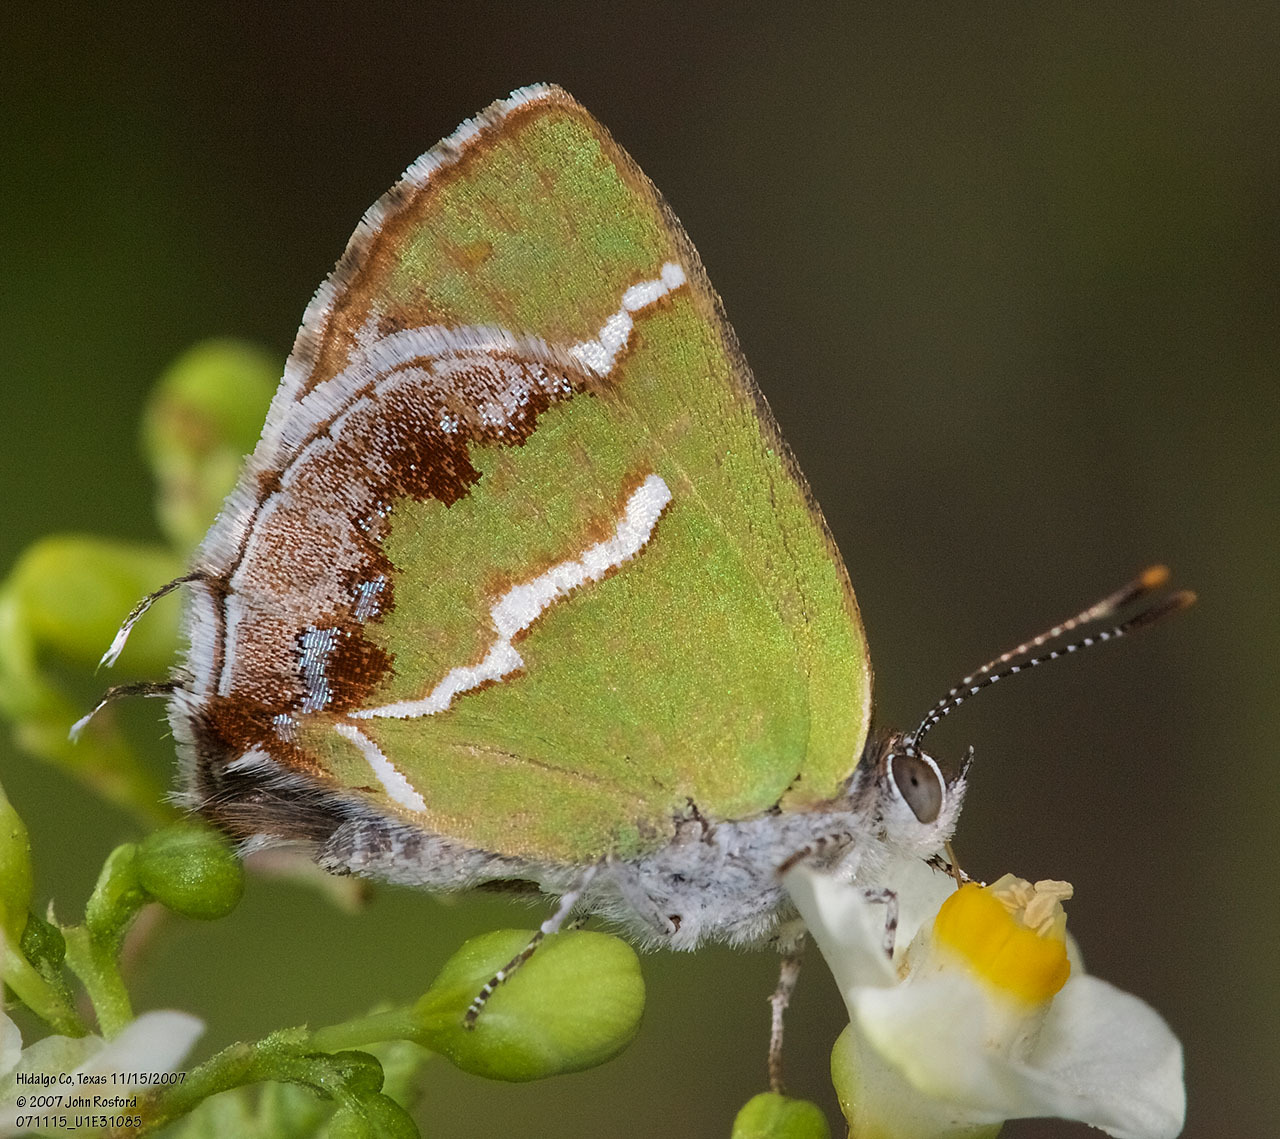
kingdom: Animalia
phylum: Arthropoda
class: Insecta
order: Lepidoptera
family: Lycaenidae
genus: Chlorostrymon
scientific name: Chlorostrymon simaethis
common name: Silver-banded hairstreak
